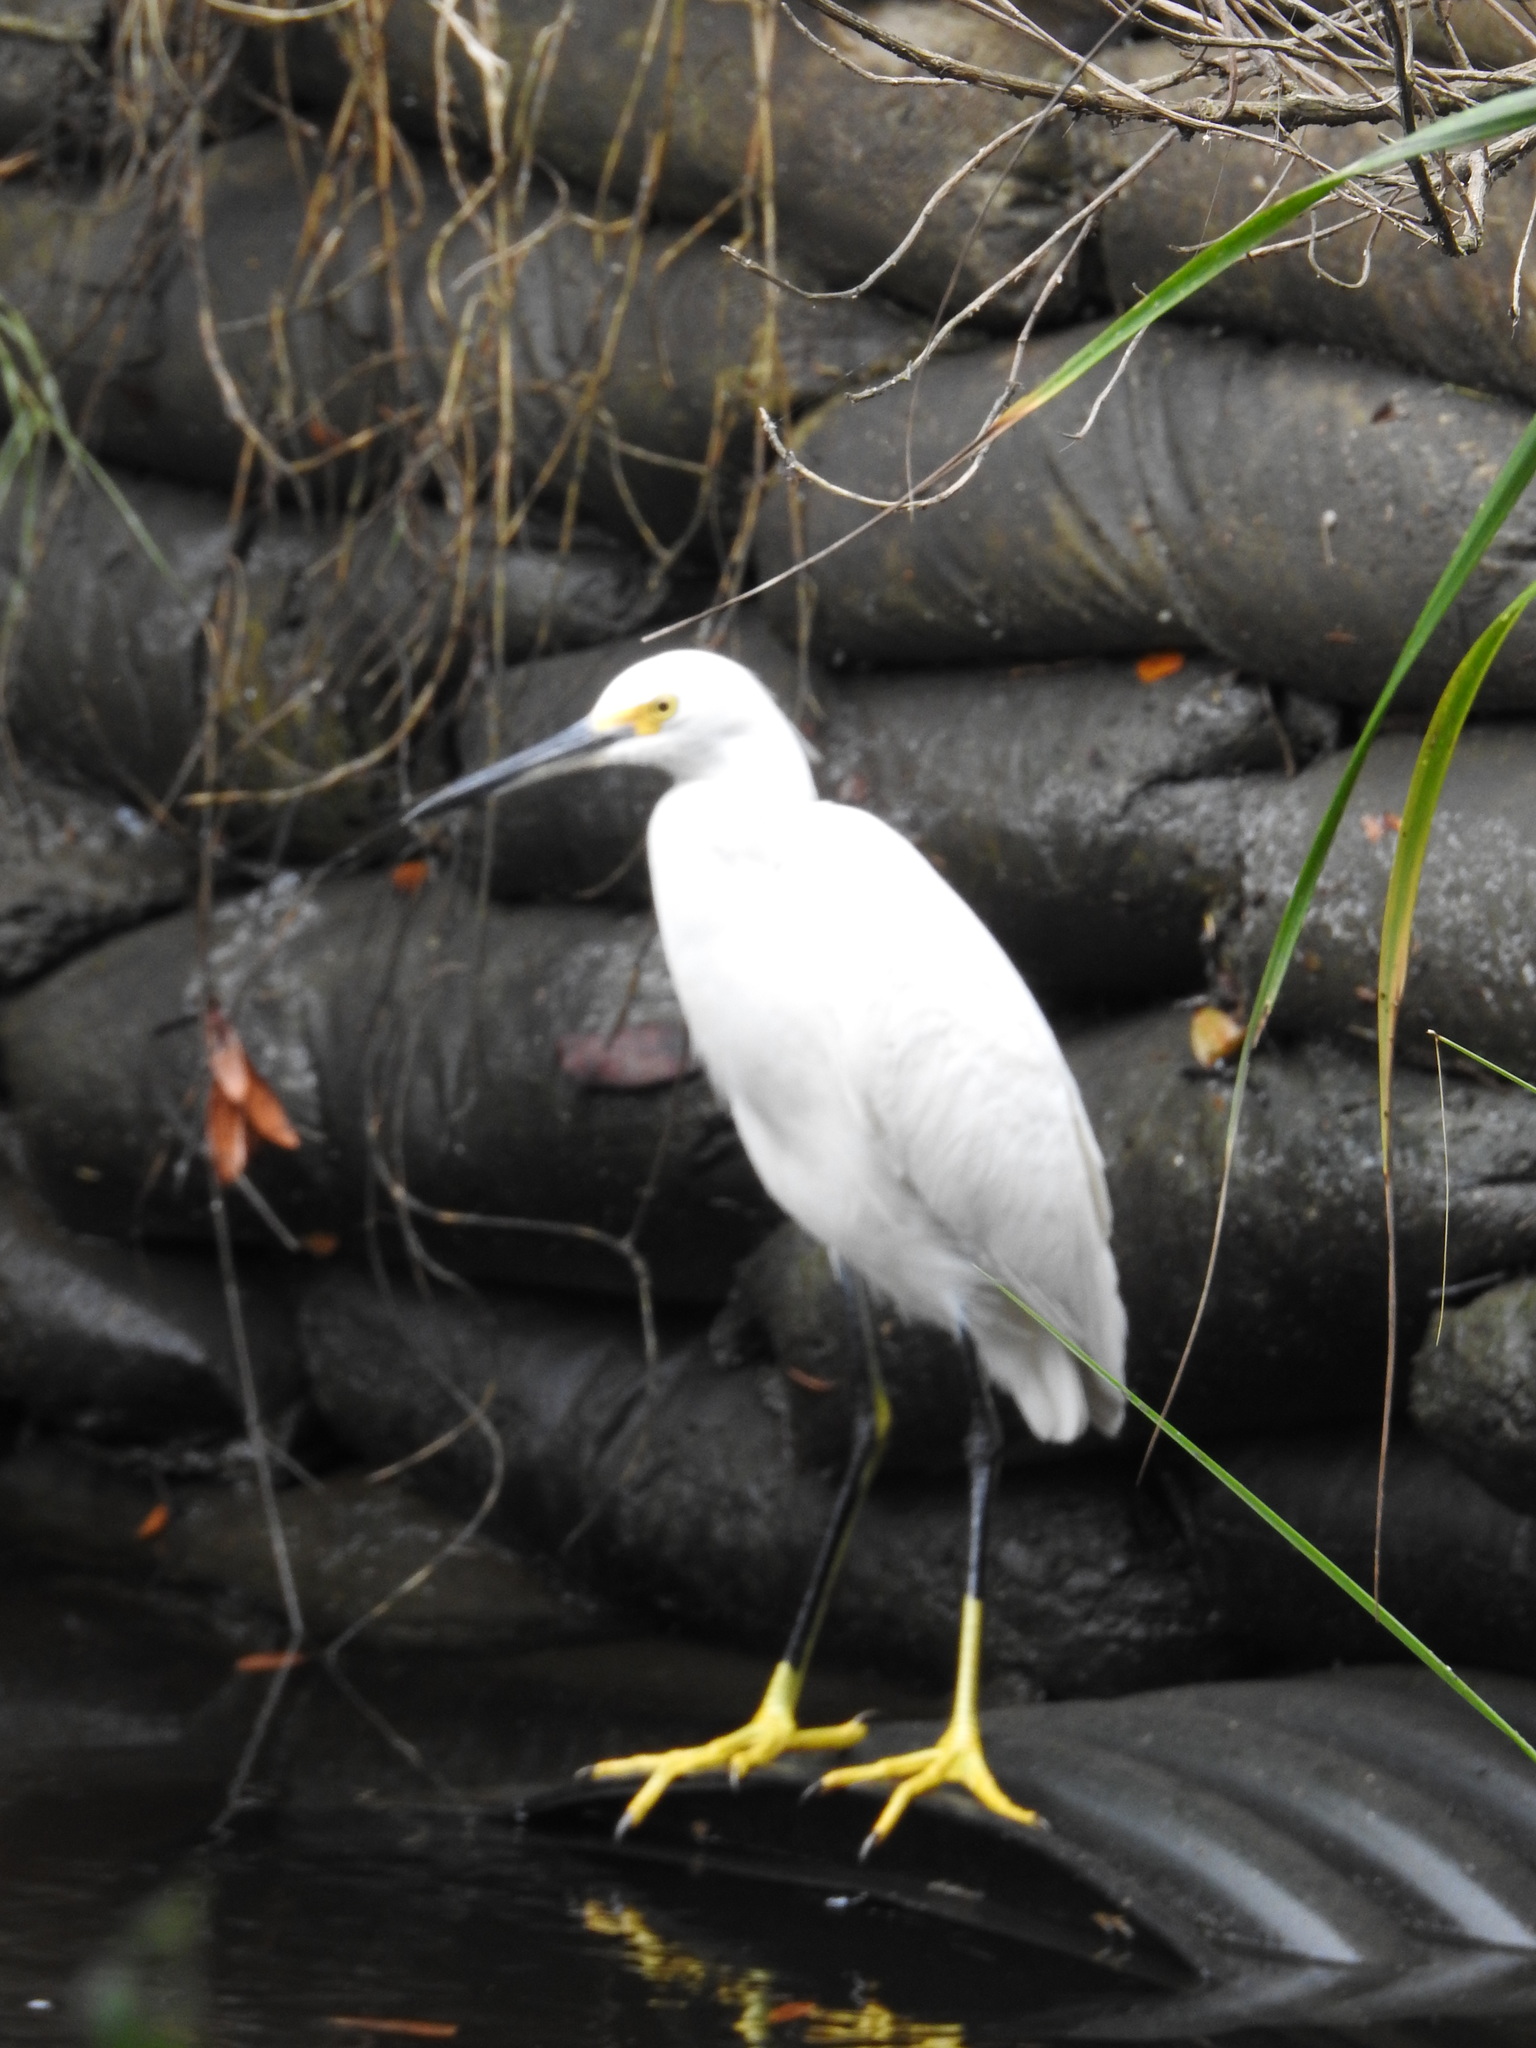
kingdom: Animalia
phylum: Chordata
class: Aves
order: Pelecaniformes
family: Ardeidae
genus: Egretta
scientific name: Egretta thula
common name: Snowy egret
